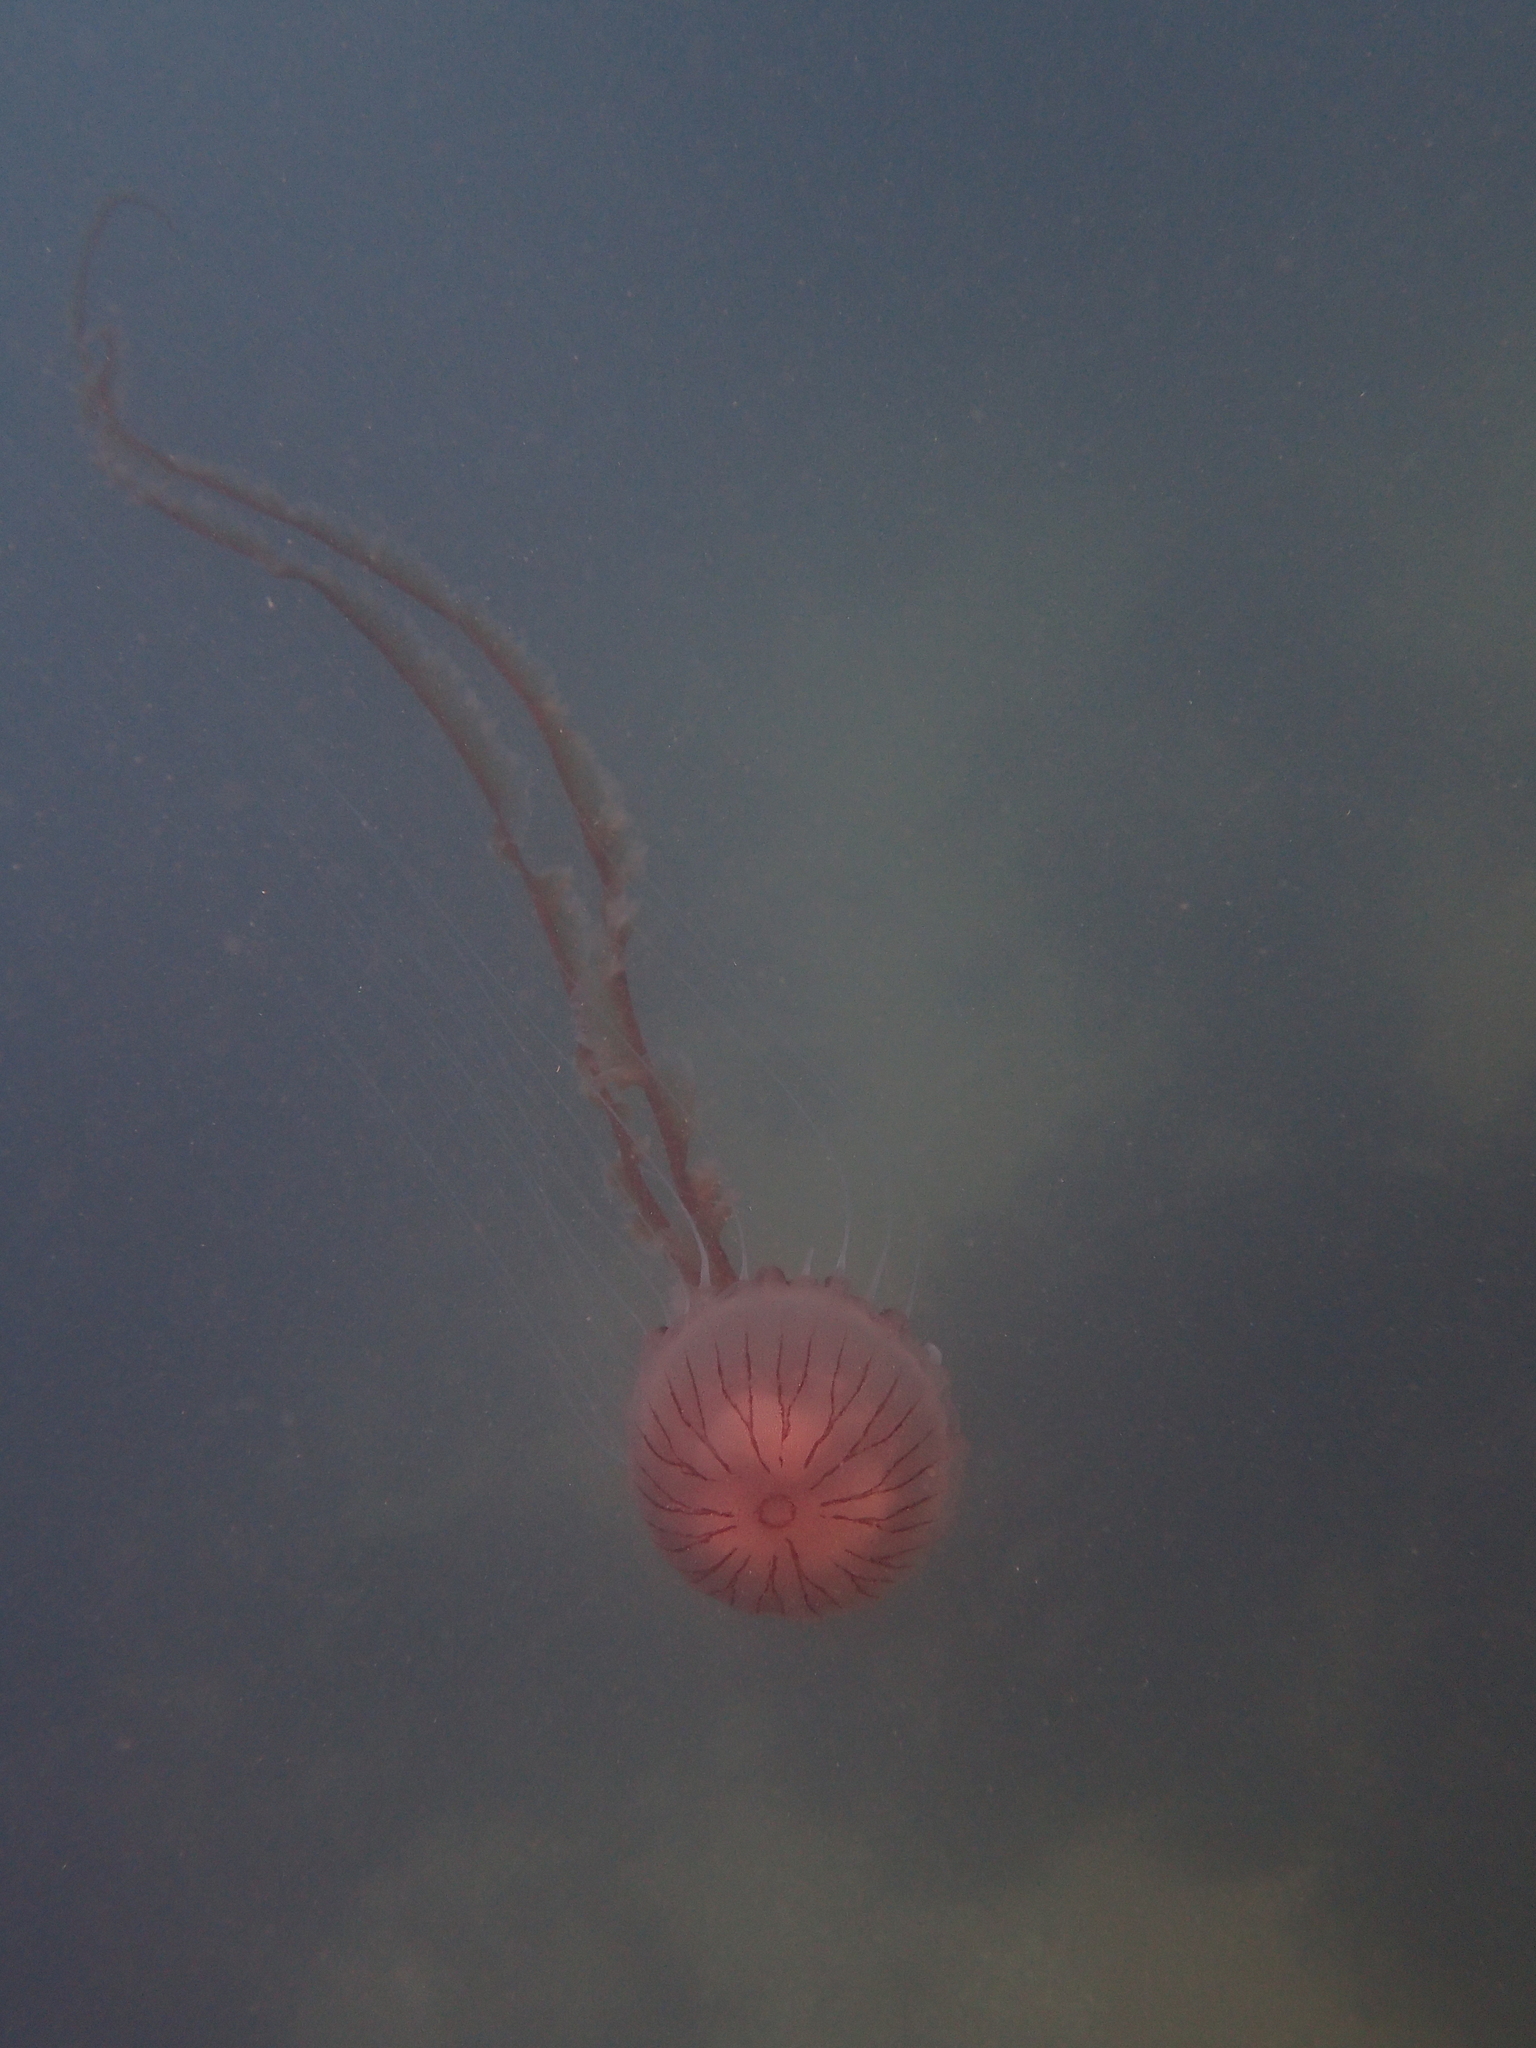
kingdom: Animalia
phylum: Cnidaria
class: Scyphozoa
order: Semaeostomeae
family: Pelagiidae
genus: Chrysaora
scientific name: Chrysaora hysoscella
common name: Compass jellyfish
